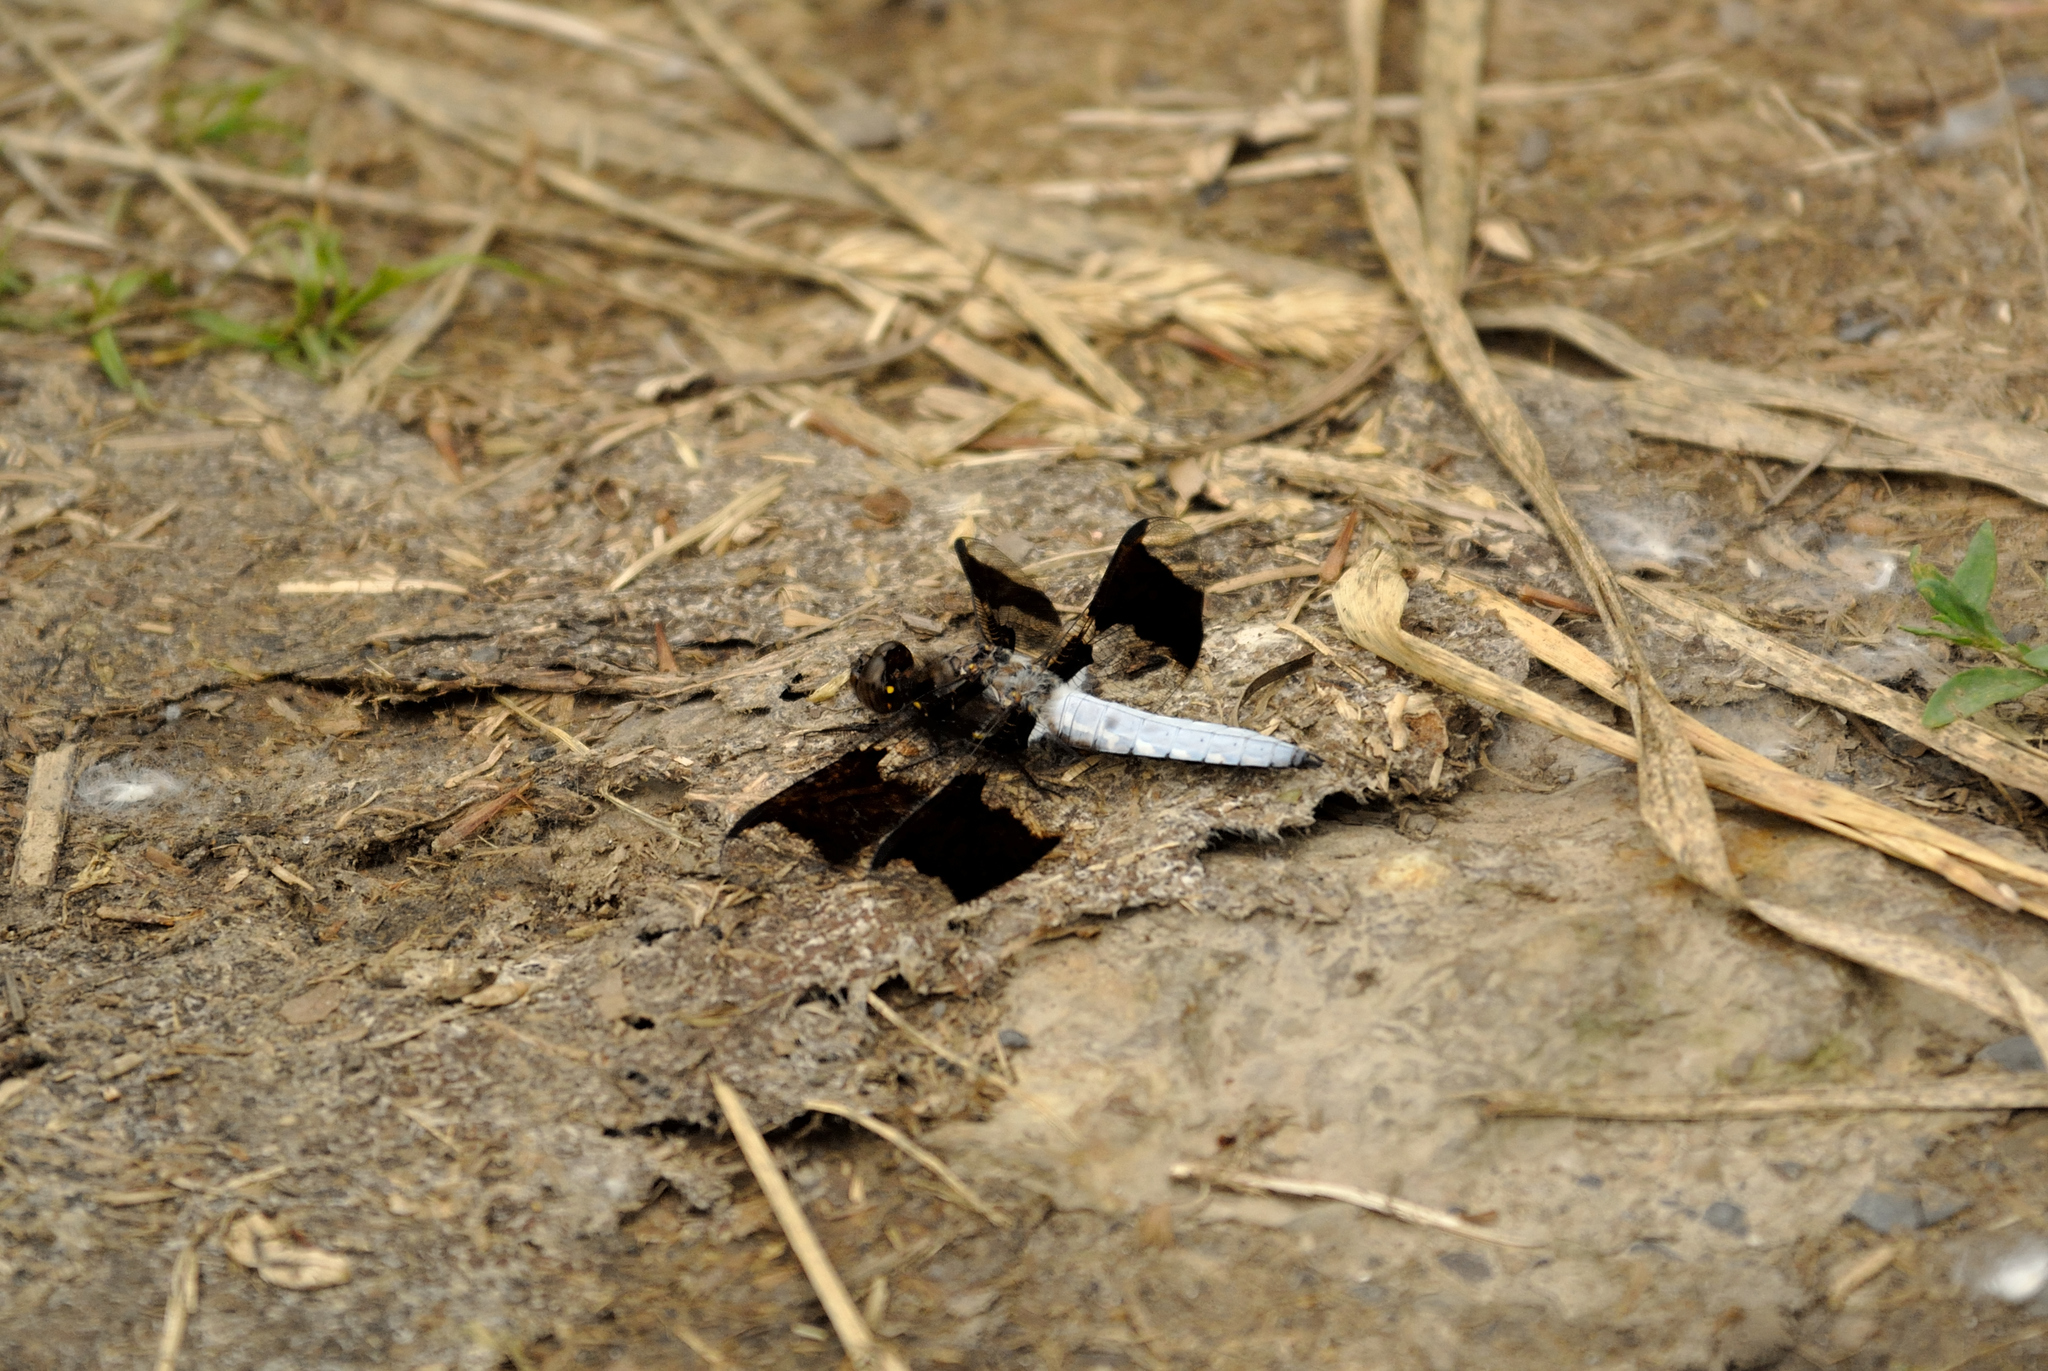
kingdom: Animalia
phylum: Arthropoda
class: Insecta
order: Odonata
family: Libellulidae
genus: Plathemis
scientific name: Plathemis lydia
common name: Common whitetail
